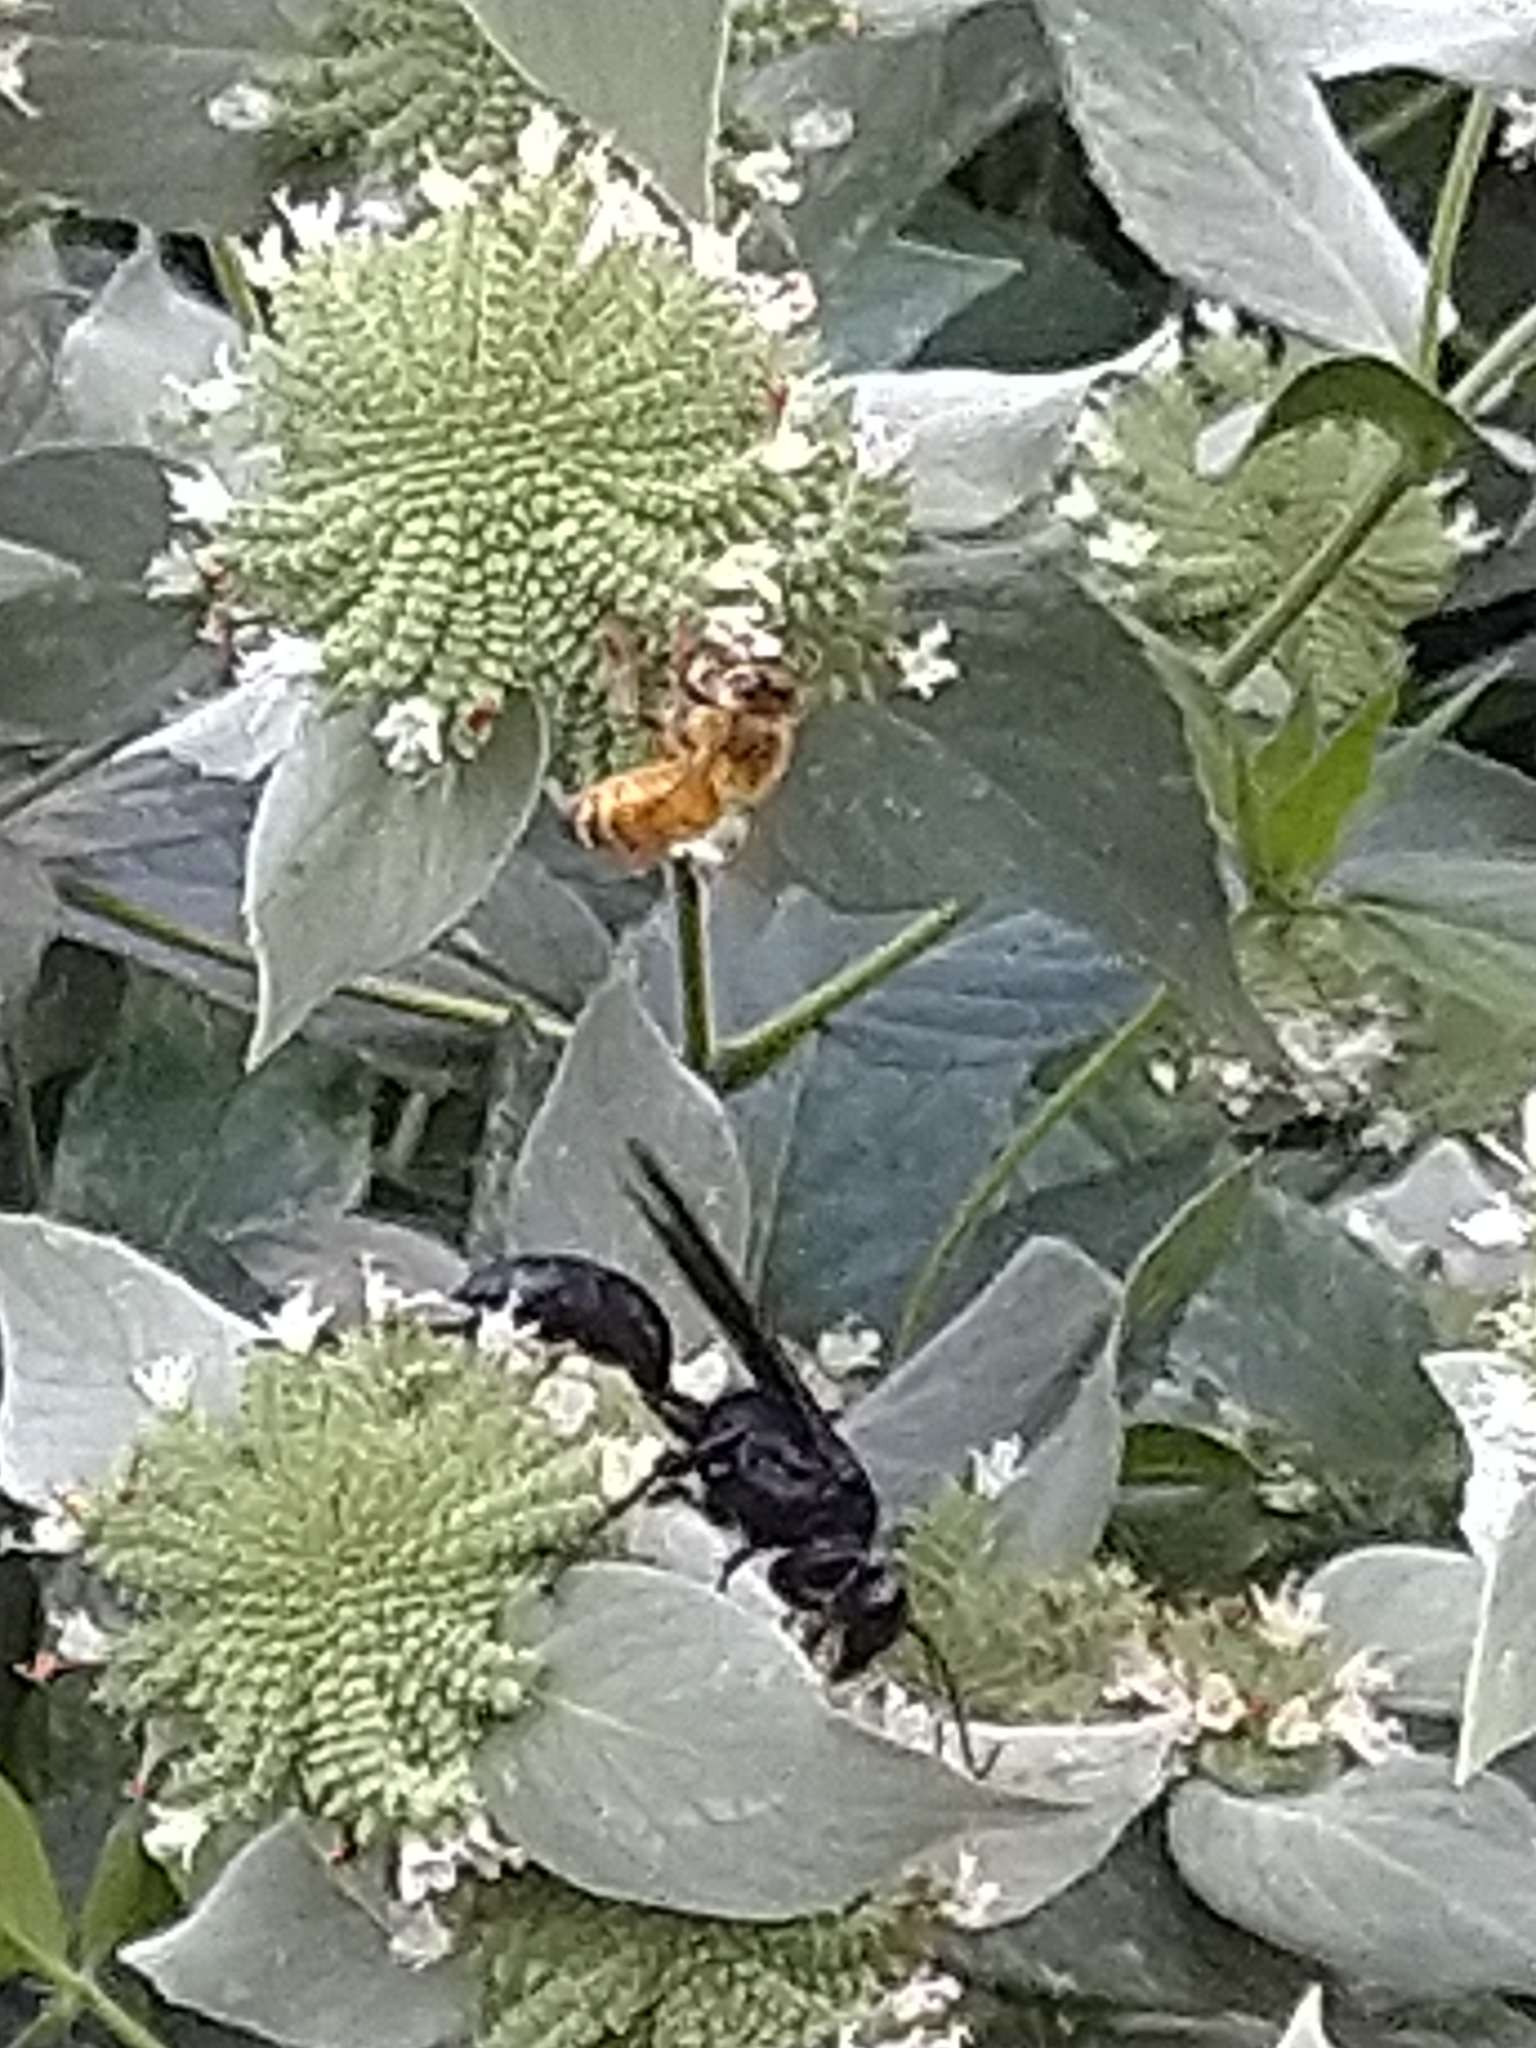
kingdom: Animalia
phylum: Arthropoda
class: Insecta
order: Hymenoptera
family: Sphecidae
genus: Sphex
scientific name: Sphex pensylvanicus
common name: Great black digger wasp
